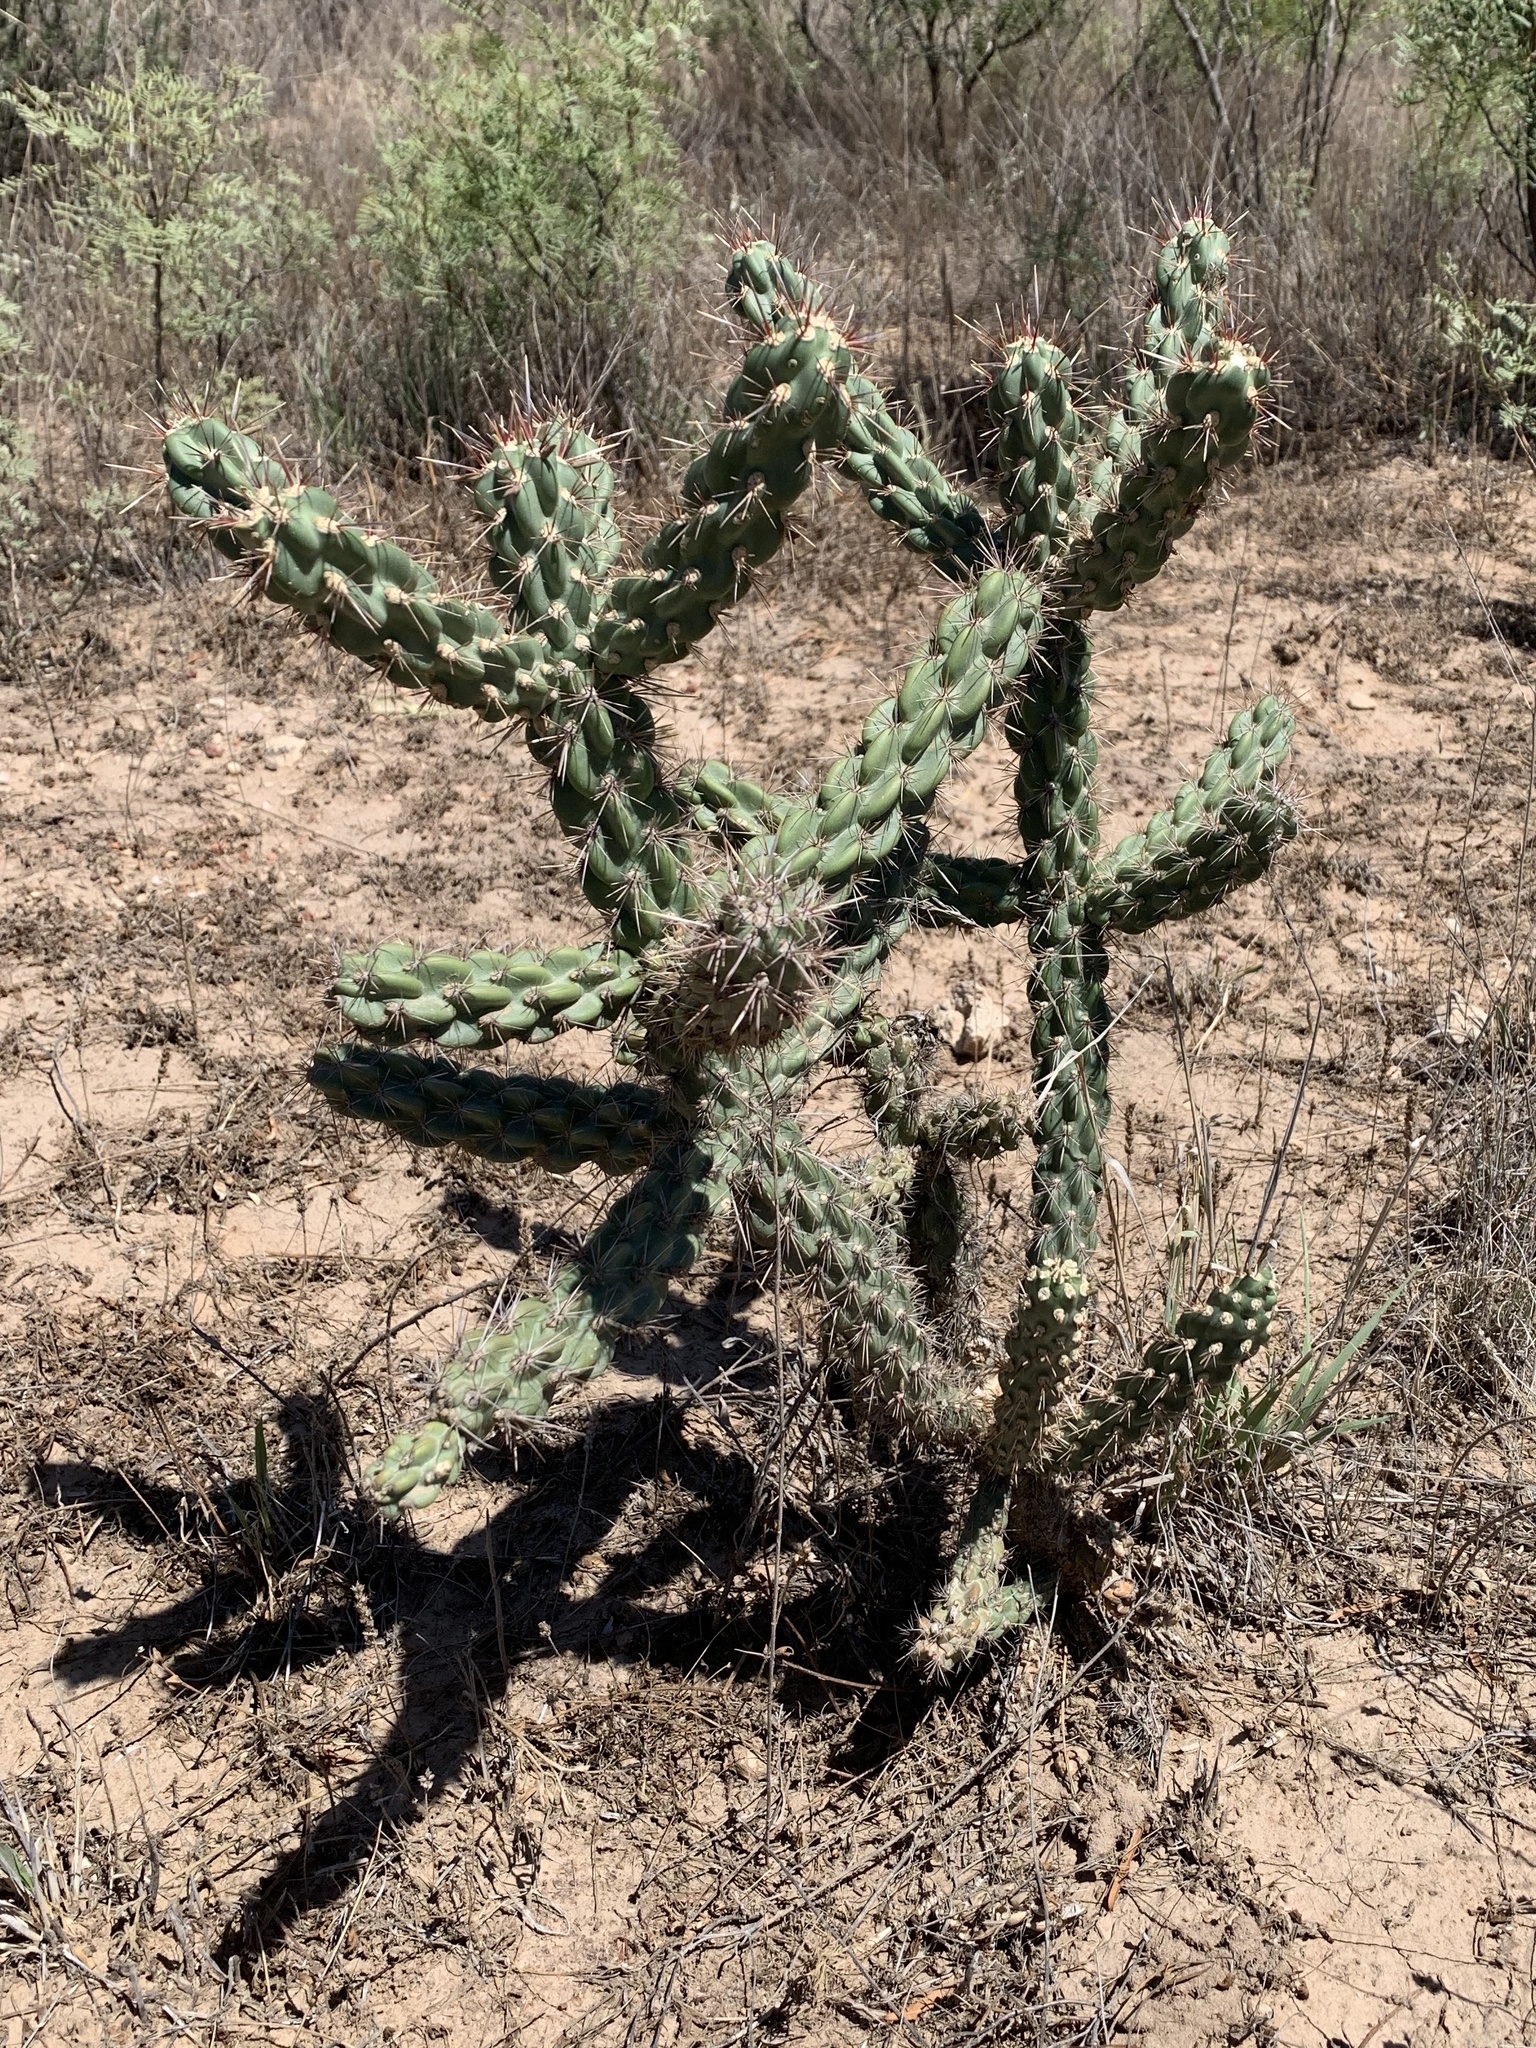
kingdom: Plantae
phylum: Tracheophyta
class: Magnoliopsida
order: Caryophyllales
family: Cactaceae
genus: Cylindropuntia
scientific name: Cylindropuntia imbricata
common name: Candelabrum cactus
